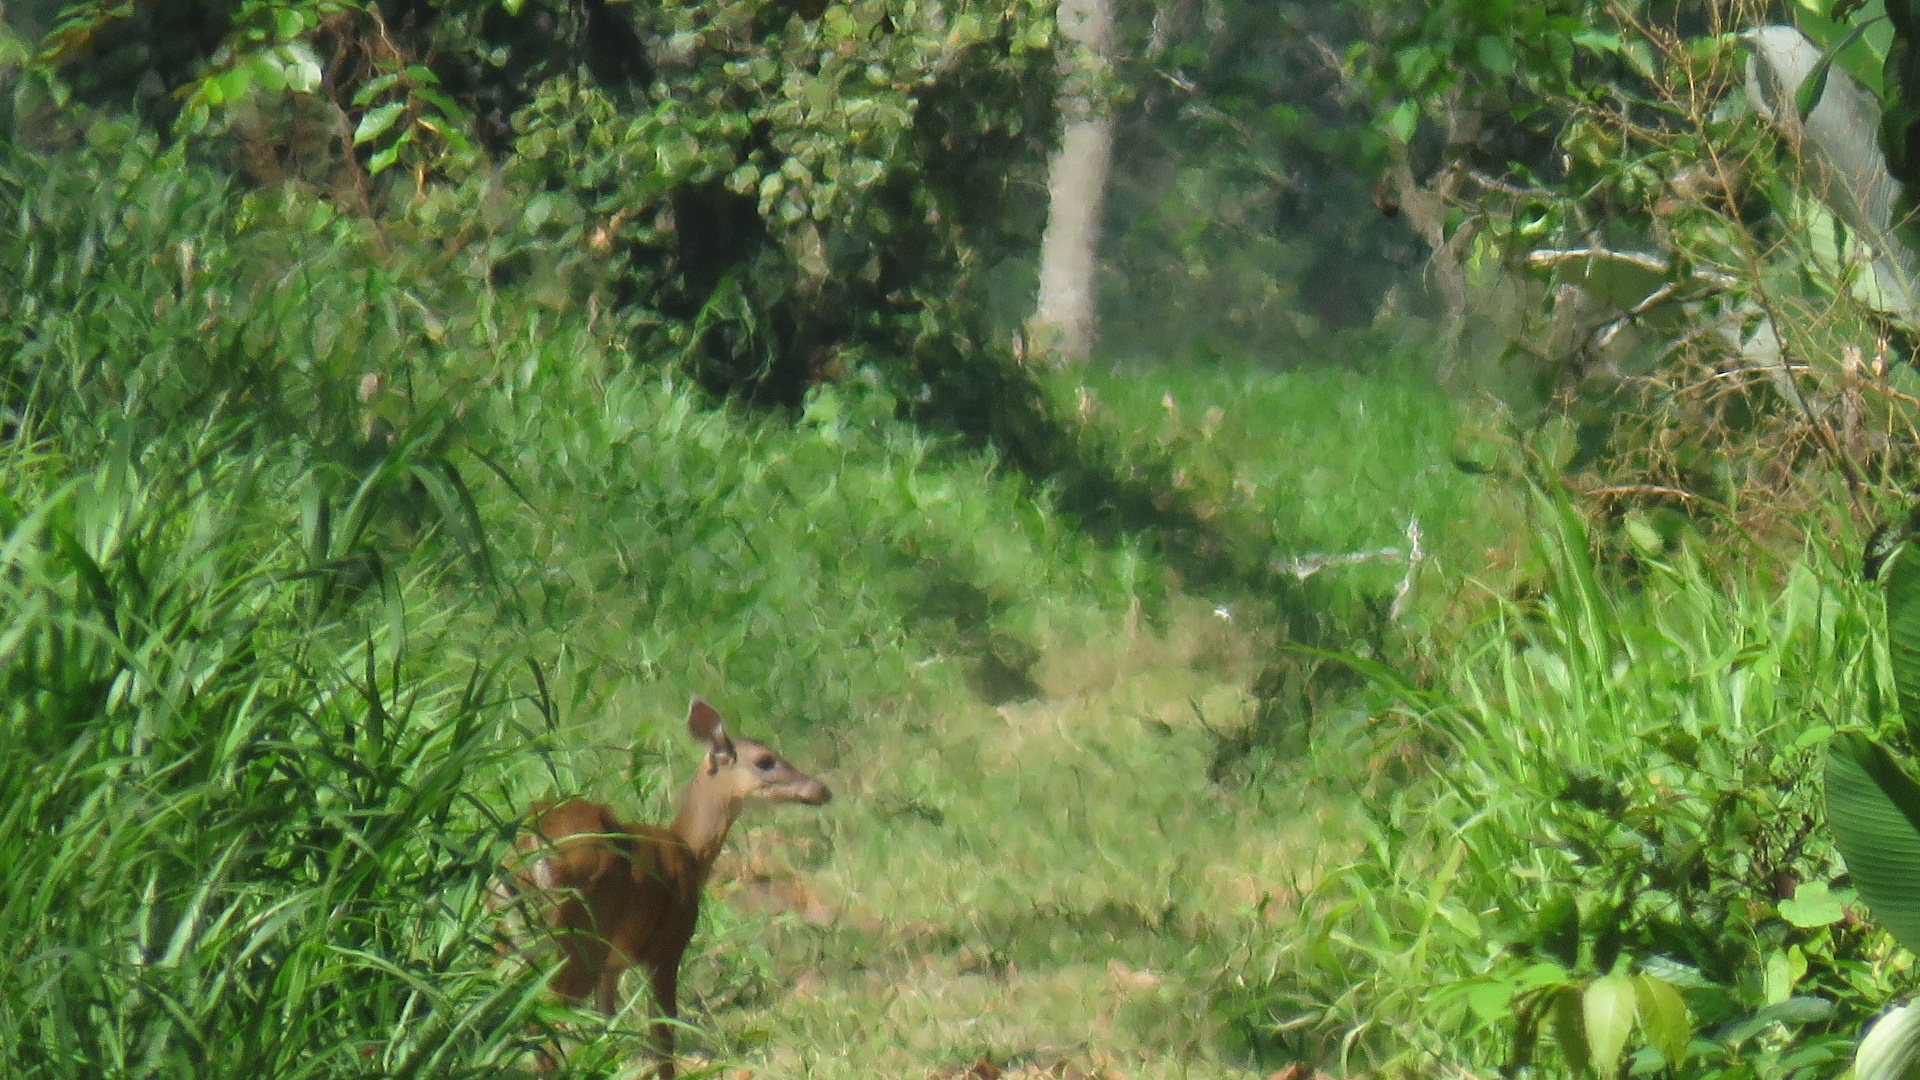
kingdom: Animalia
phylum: Chordata
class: Mammalia
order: Artiodactyla
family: Cervidae
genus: Mazama
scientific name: Mazama temama
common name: Central american red brocket
